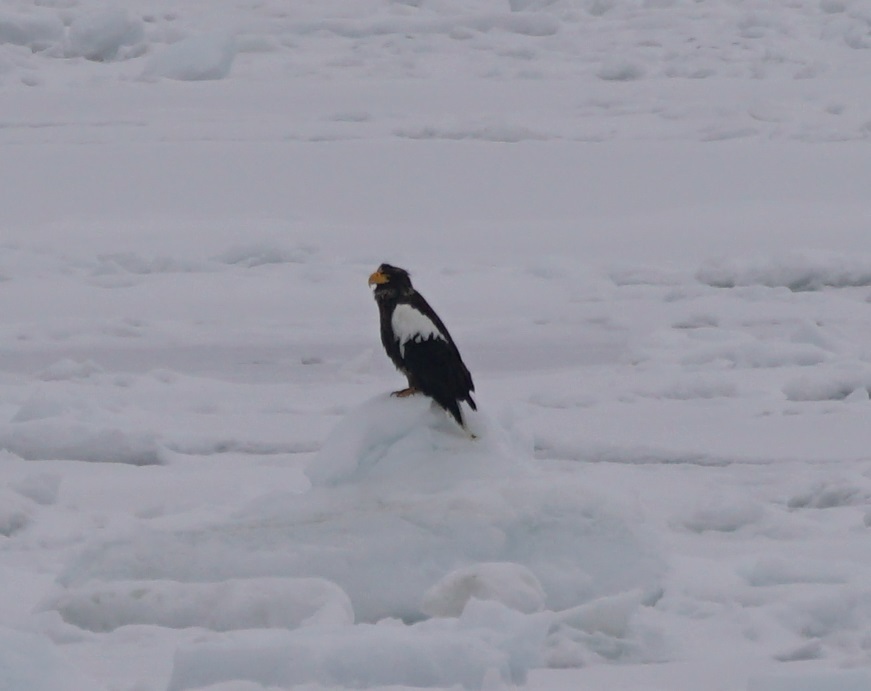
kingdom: Animalia
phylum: Chordata
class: Aves
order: Accipitriformes
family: Accipitridae
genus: Haliaeetus
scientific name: Haliaeetus pelagicus
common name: Steller's sea eagle
